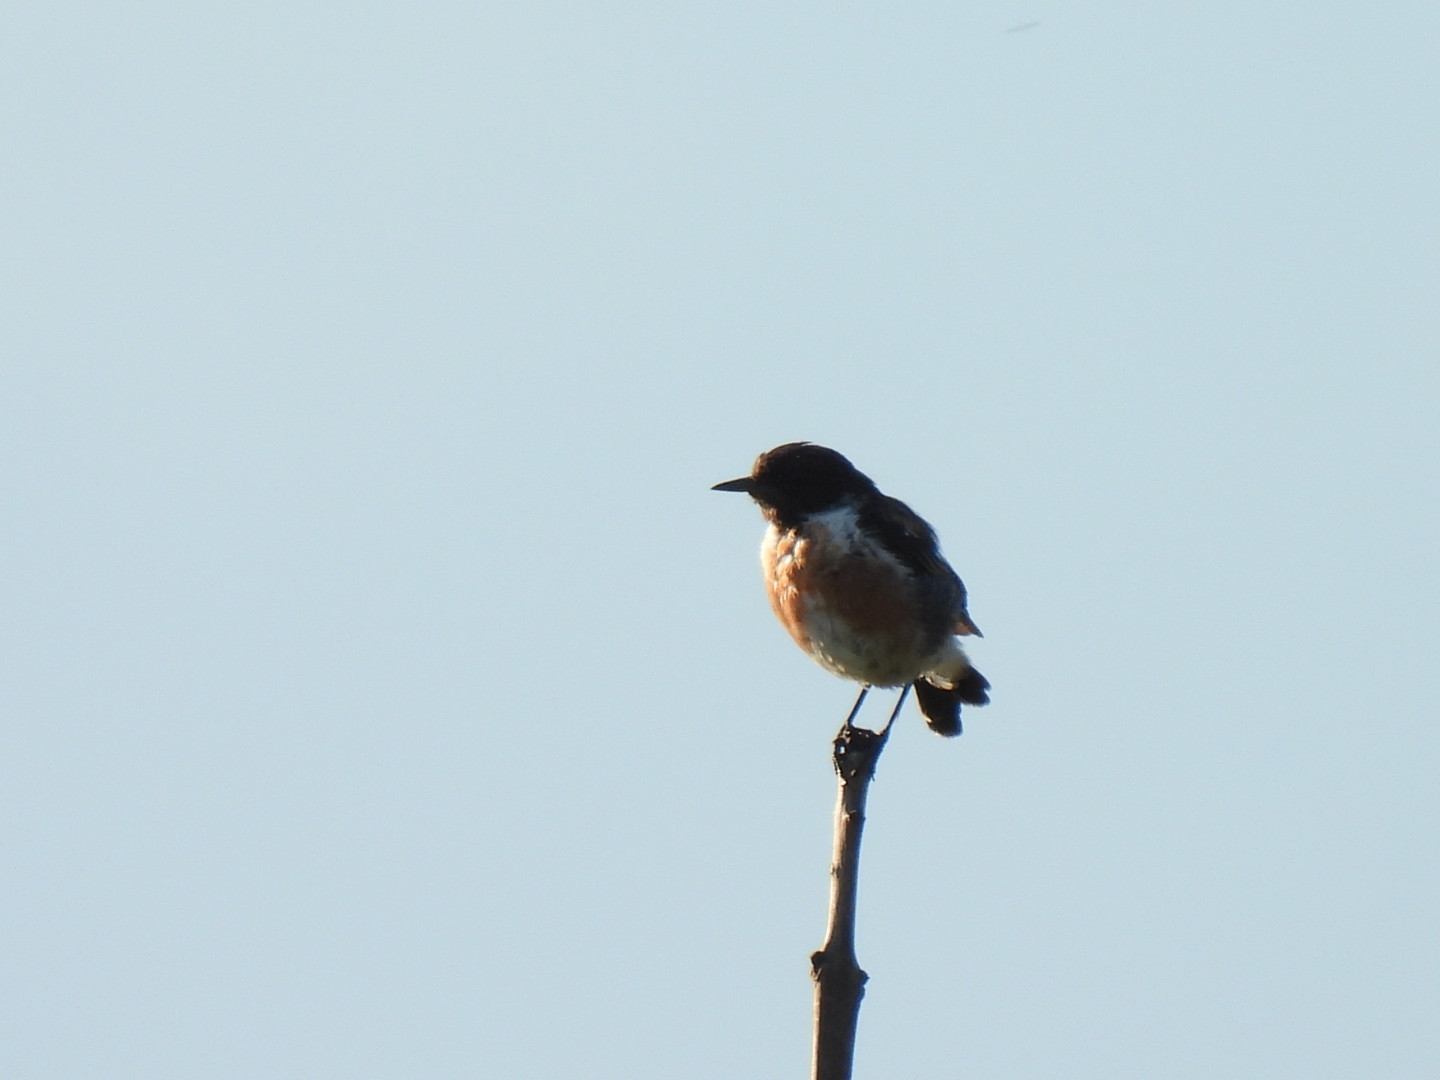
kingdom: Animalia
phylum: Chordata
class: Aves
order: Passeriformes
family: Muscicapidae
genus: Saxicola
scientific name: Saxicola rubicola
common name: European stonechat
